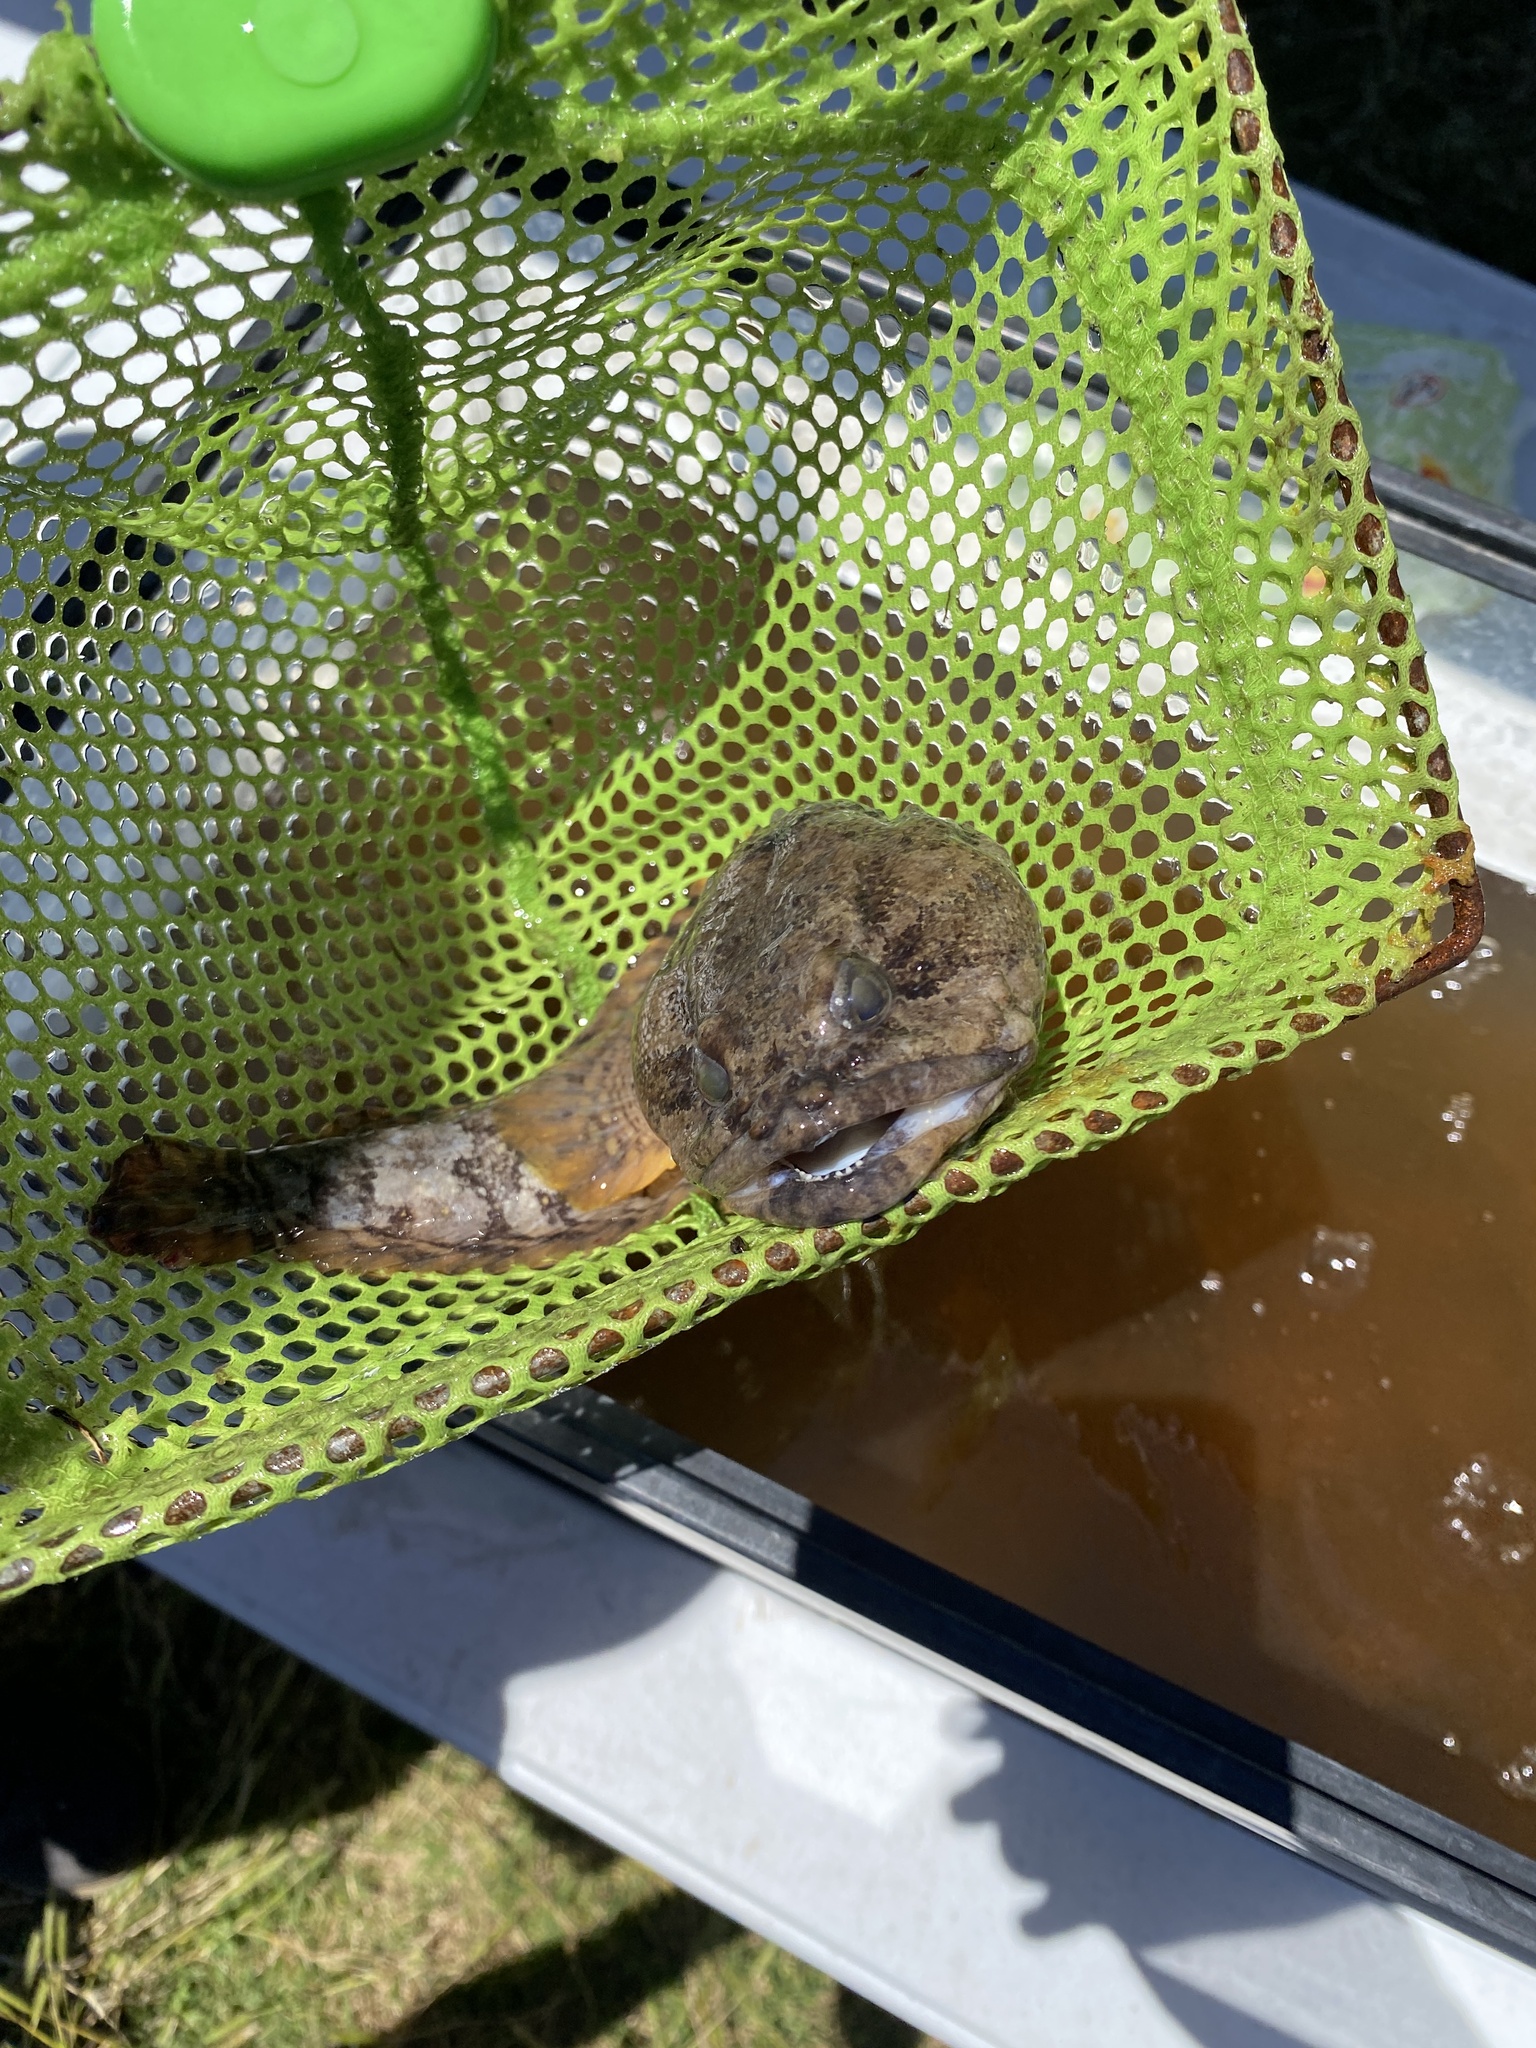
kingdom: Animalia
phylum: Chordata
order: Batrachoidiformes
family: Batrachoididae
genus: Opsanus
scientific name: Opsanus beta
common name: Gulf toadfish
